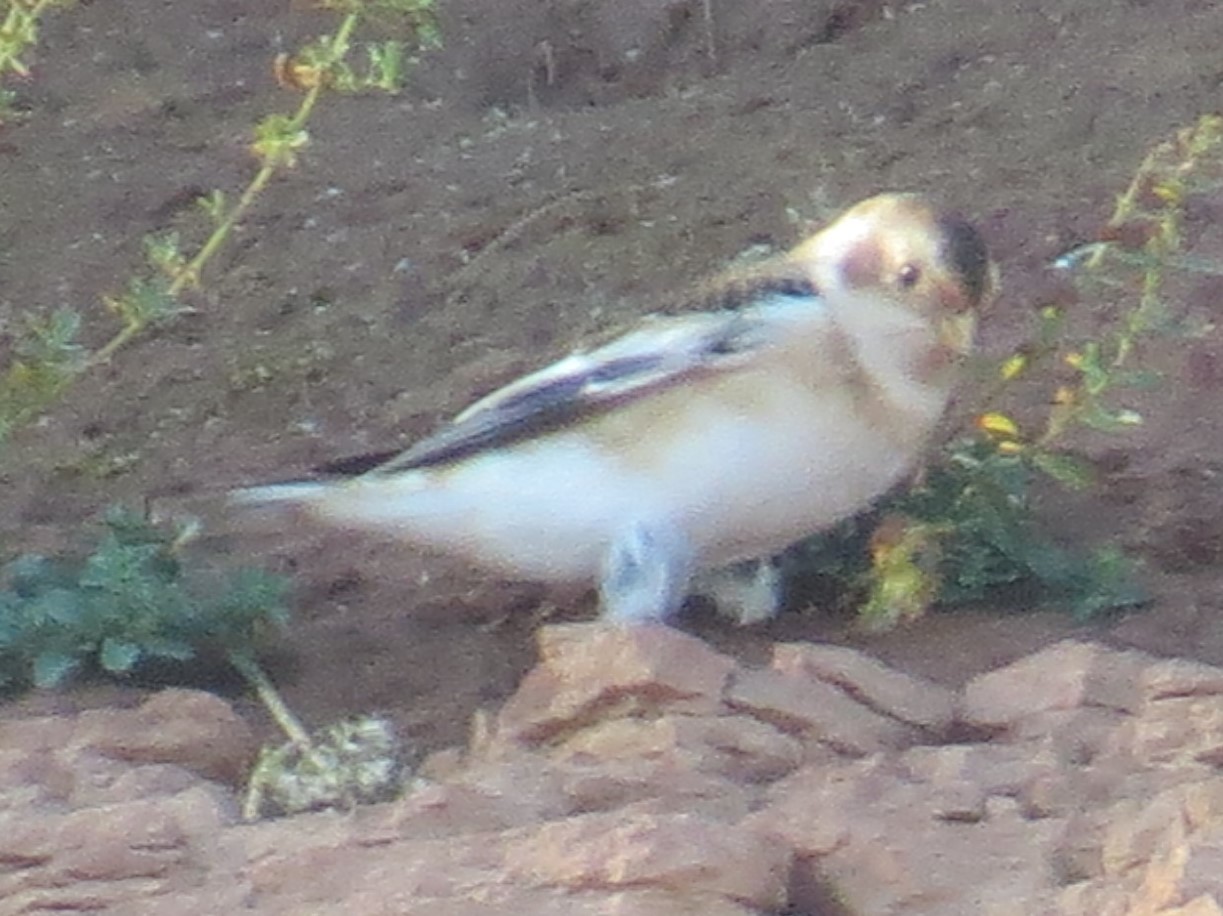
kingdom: Animalia
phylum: Chordata
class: Aves
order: Passeriformes
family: Calcariidae
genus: Plectrophenax
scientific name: Plectrophenax nivalis
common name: Snow bunting
